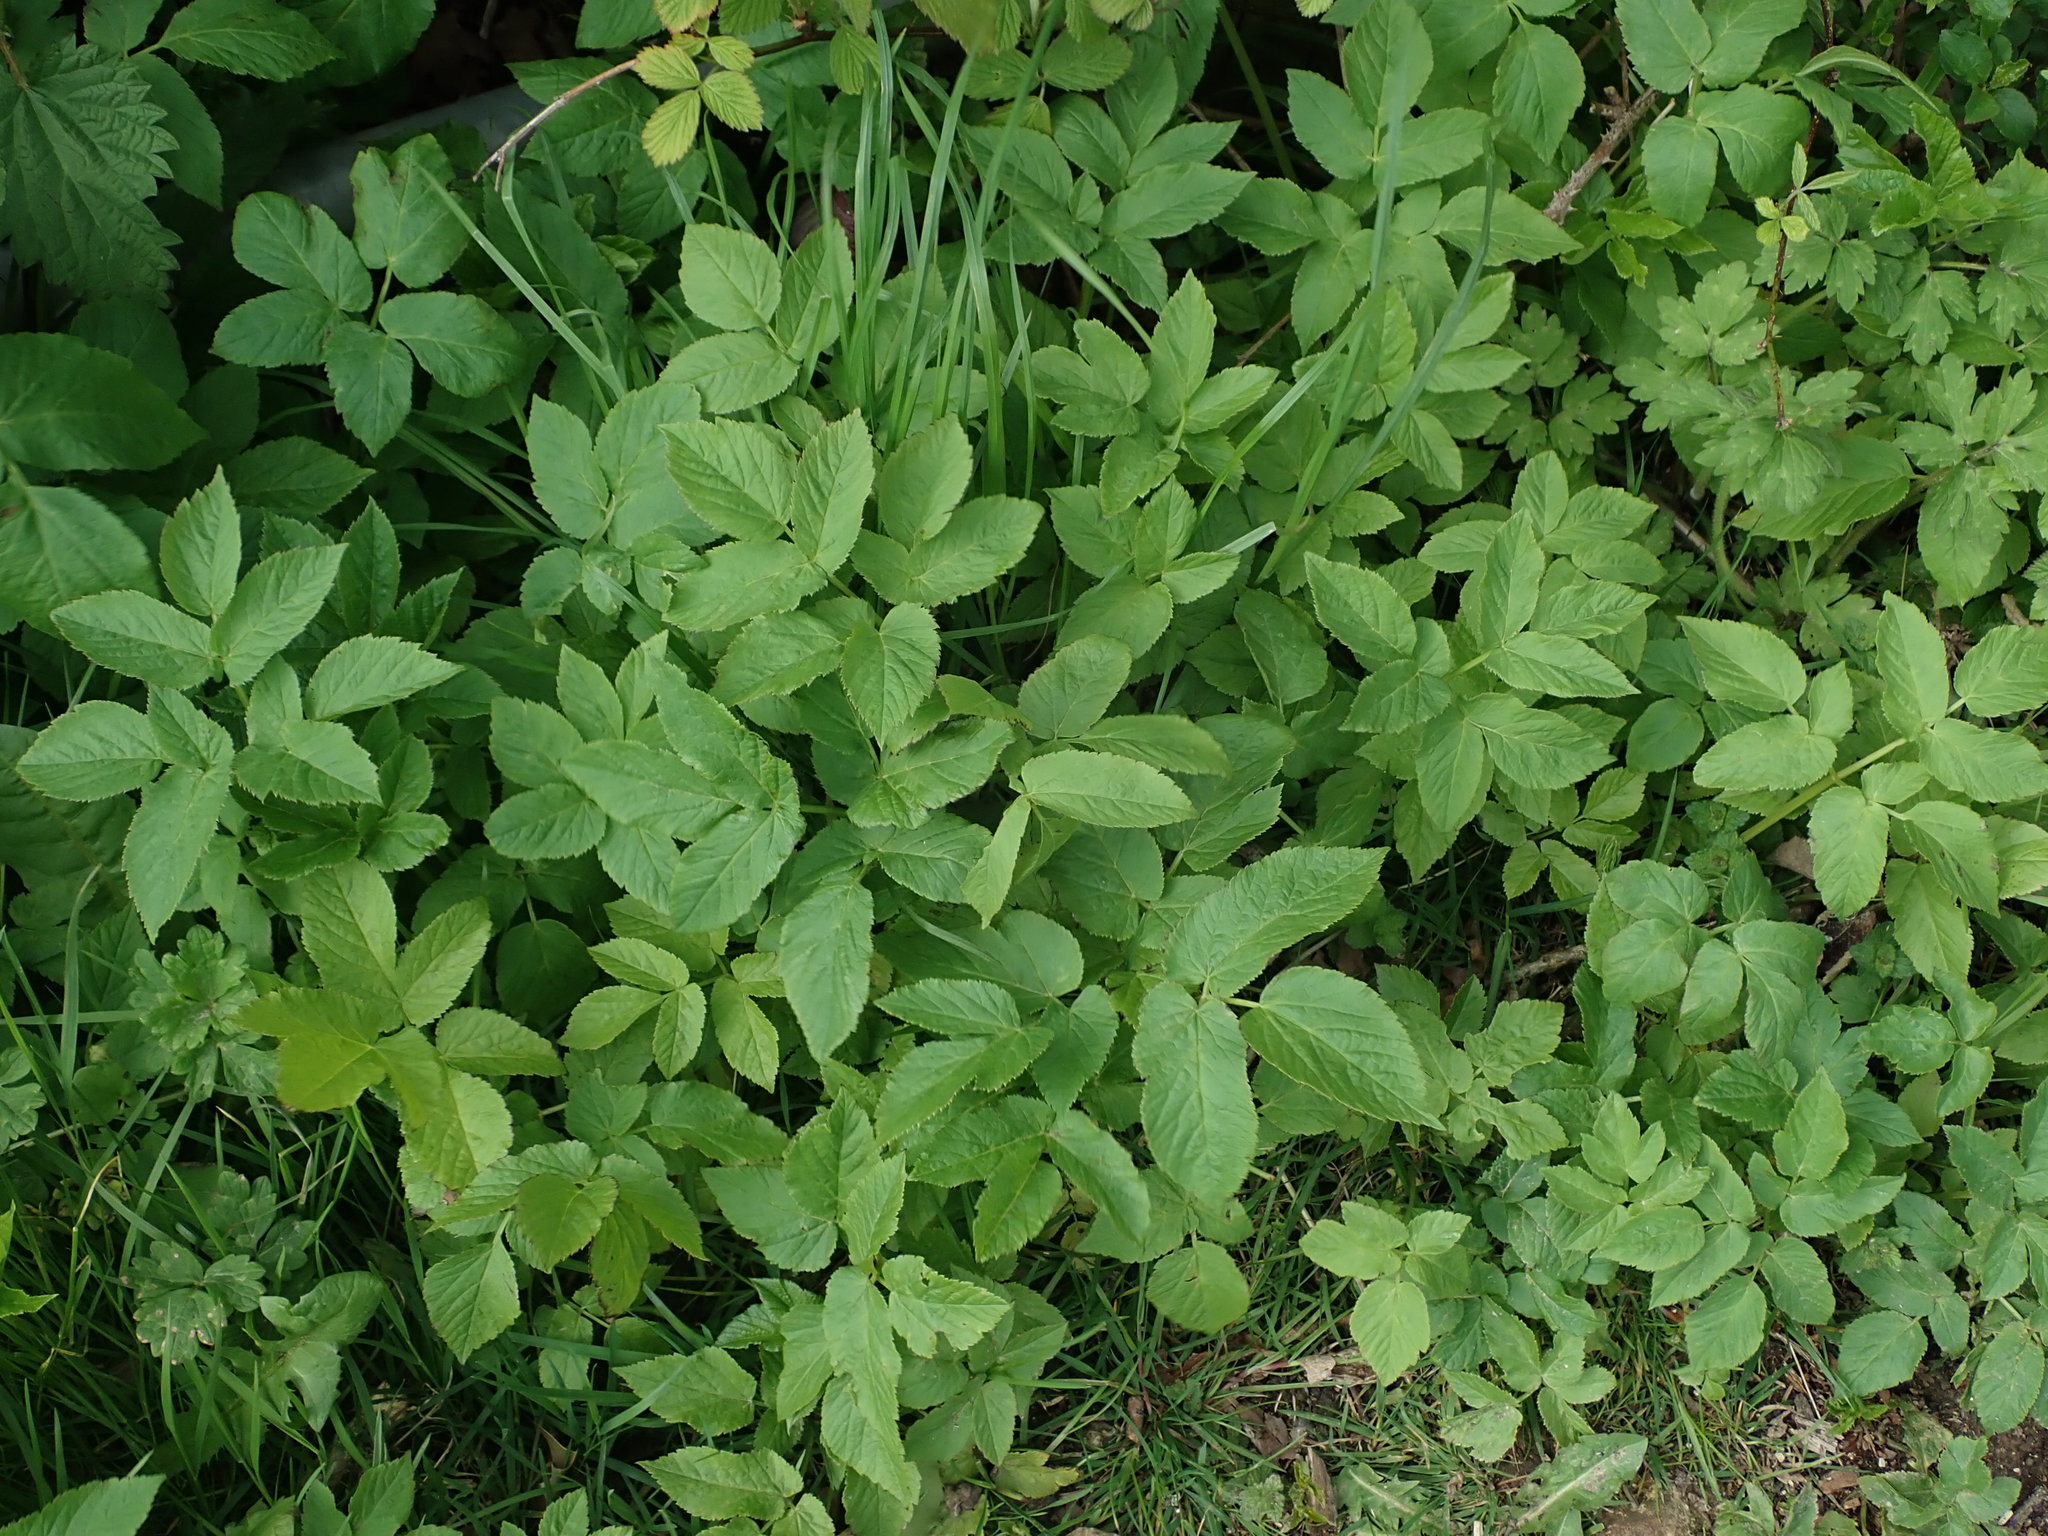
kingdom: Plantae
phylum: Tracheophyta
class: Magnoliopsida
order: Apiales
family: Apiaceae
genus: Aegopodium
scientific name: Aegopodium podagraria
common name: Ground-elder
